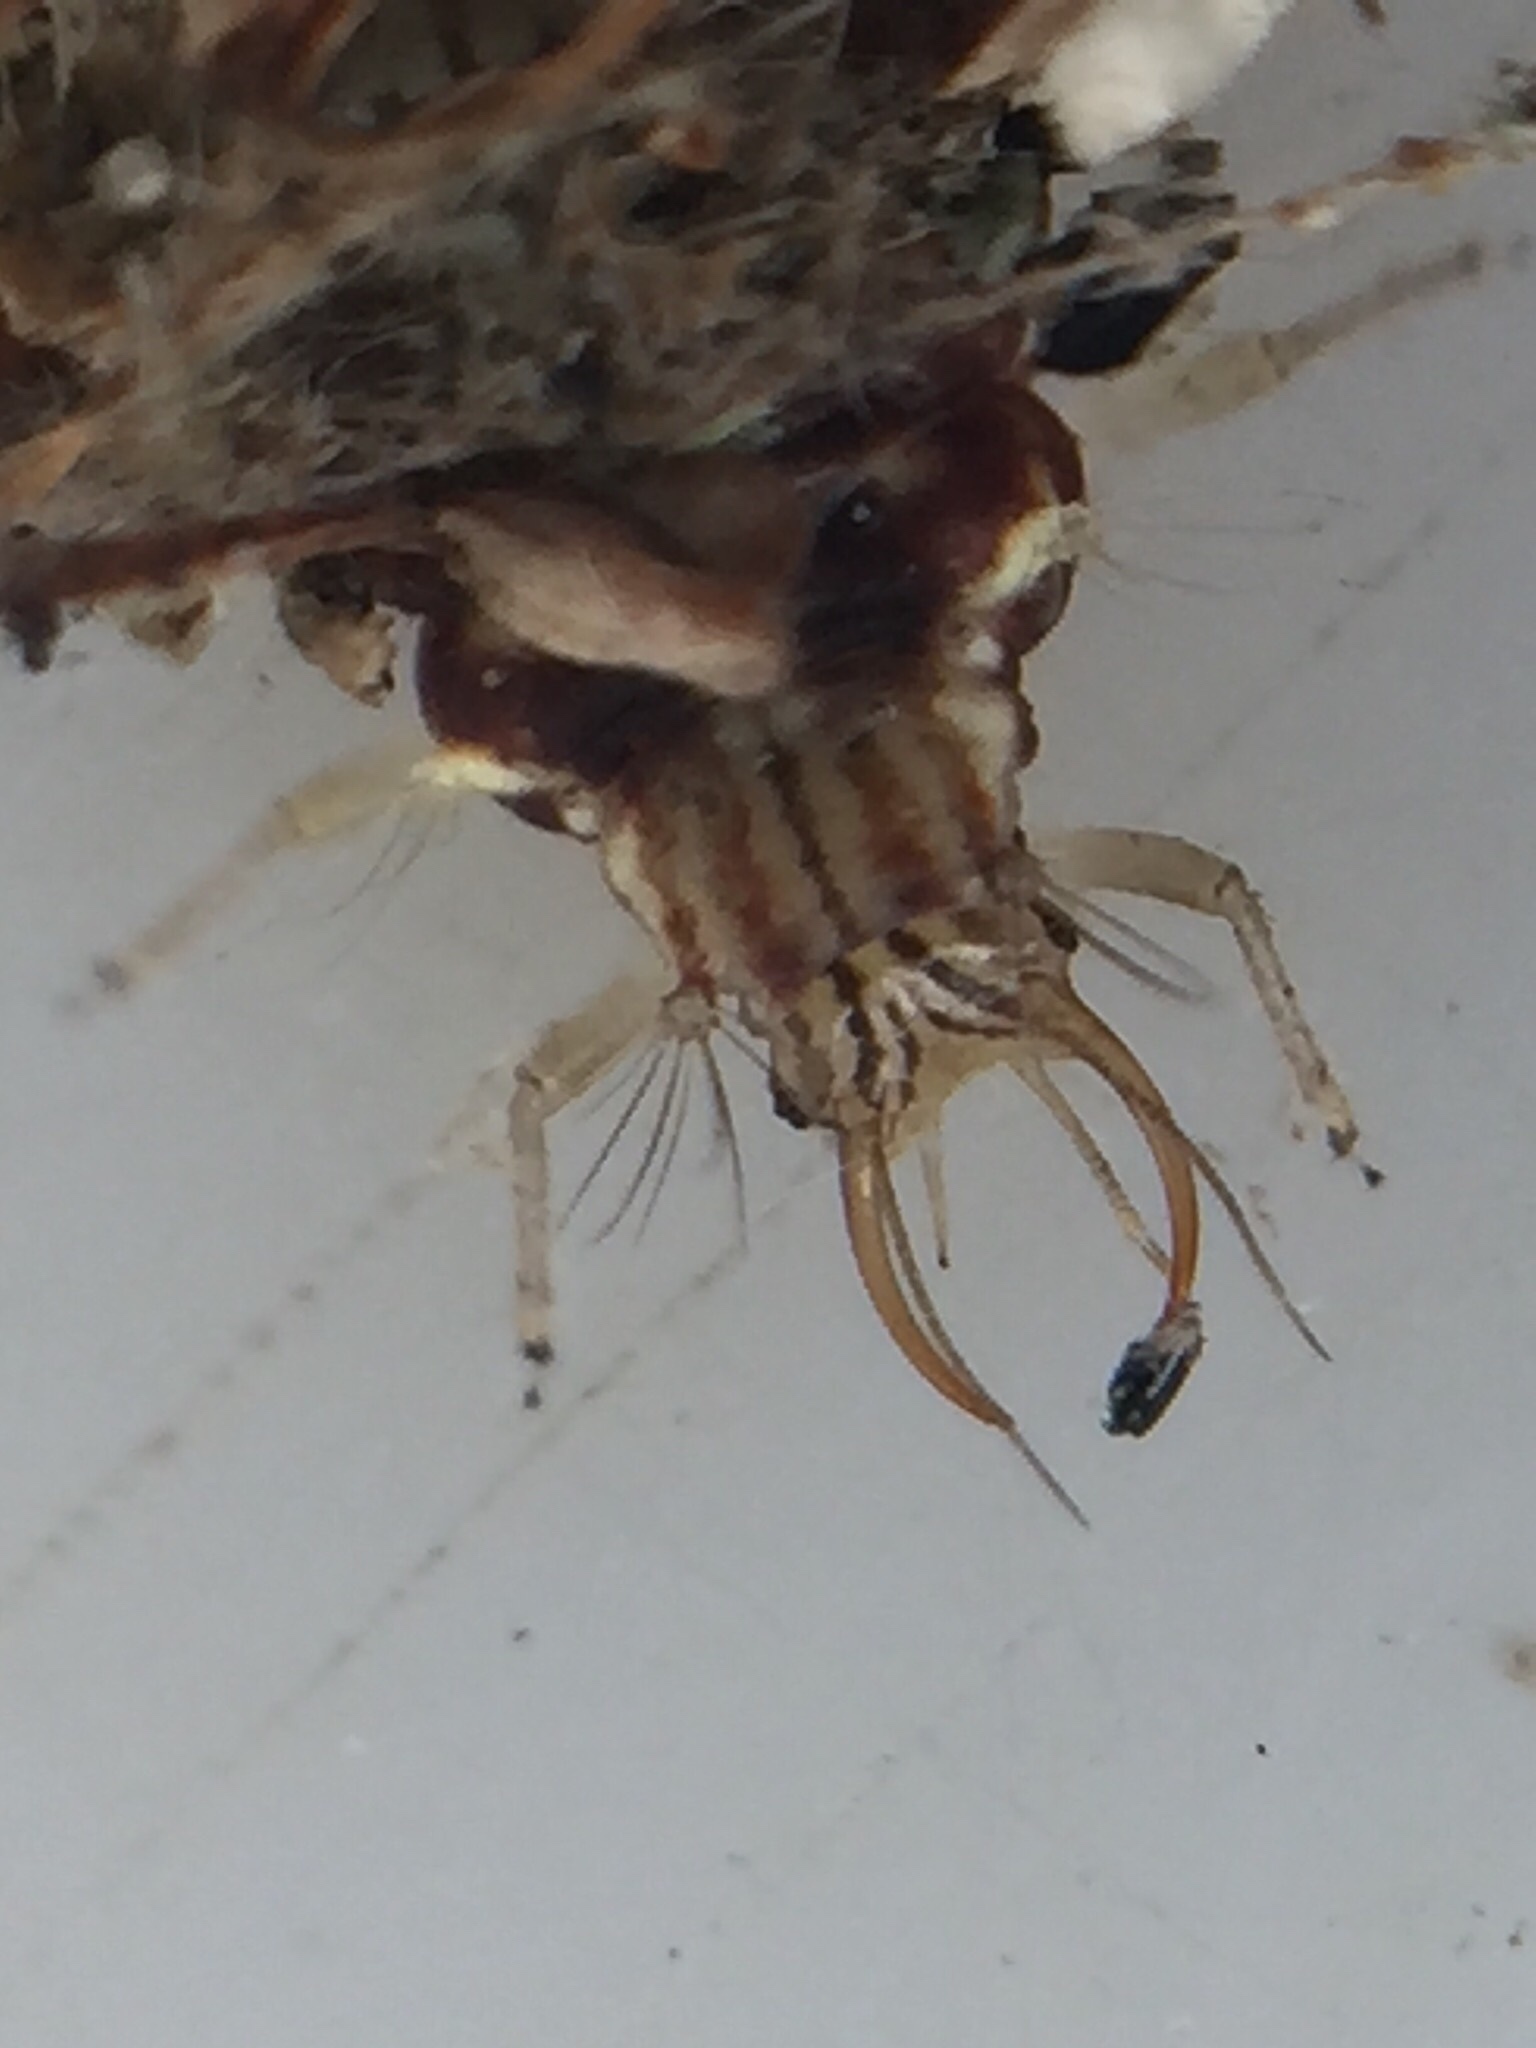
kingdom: Animalia
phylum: Arthropoda
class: Insecta
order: Neuroptera
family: Chrysopidae
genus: Mallada
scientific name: Mallada basalis
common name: Green lacewing
